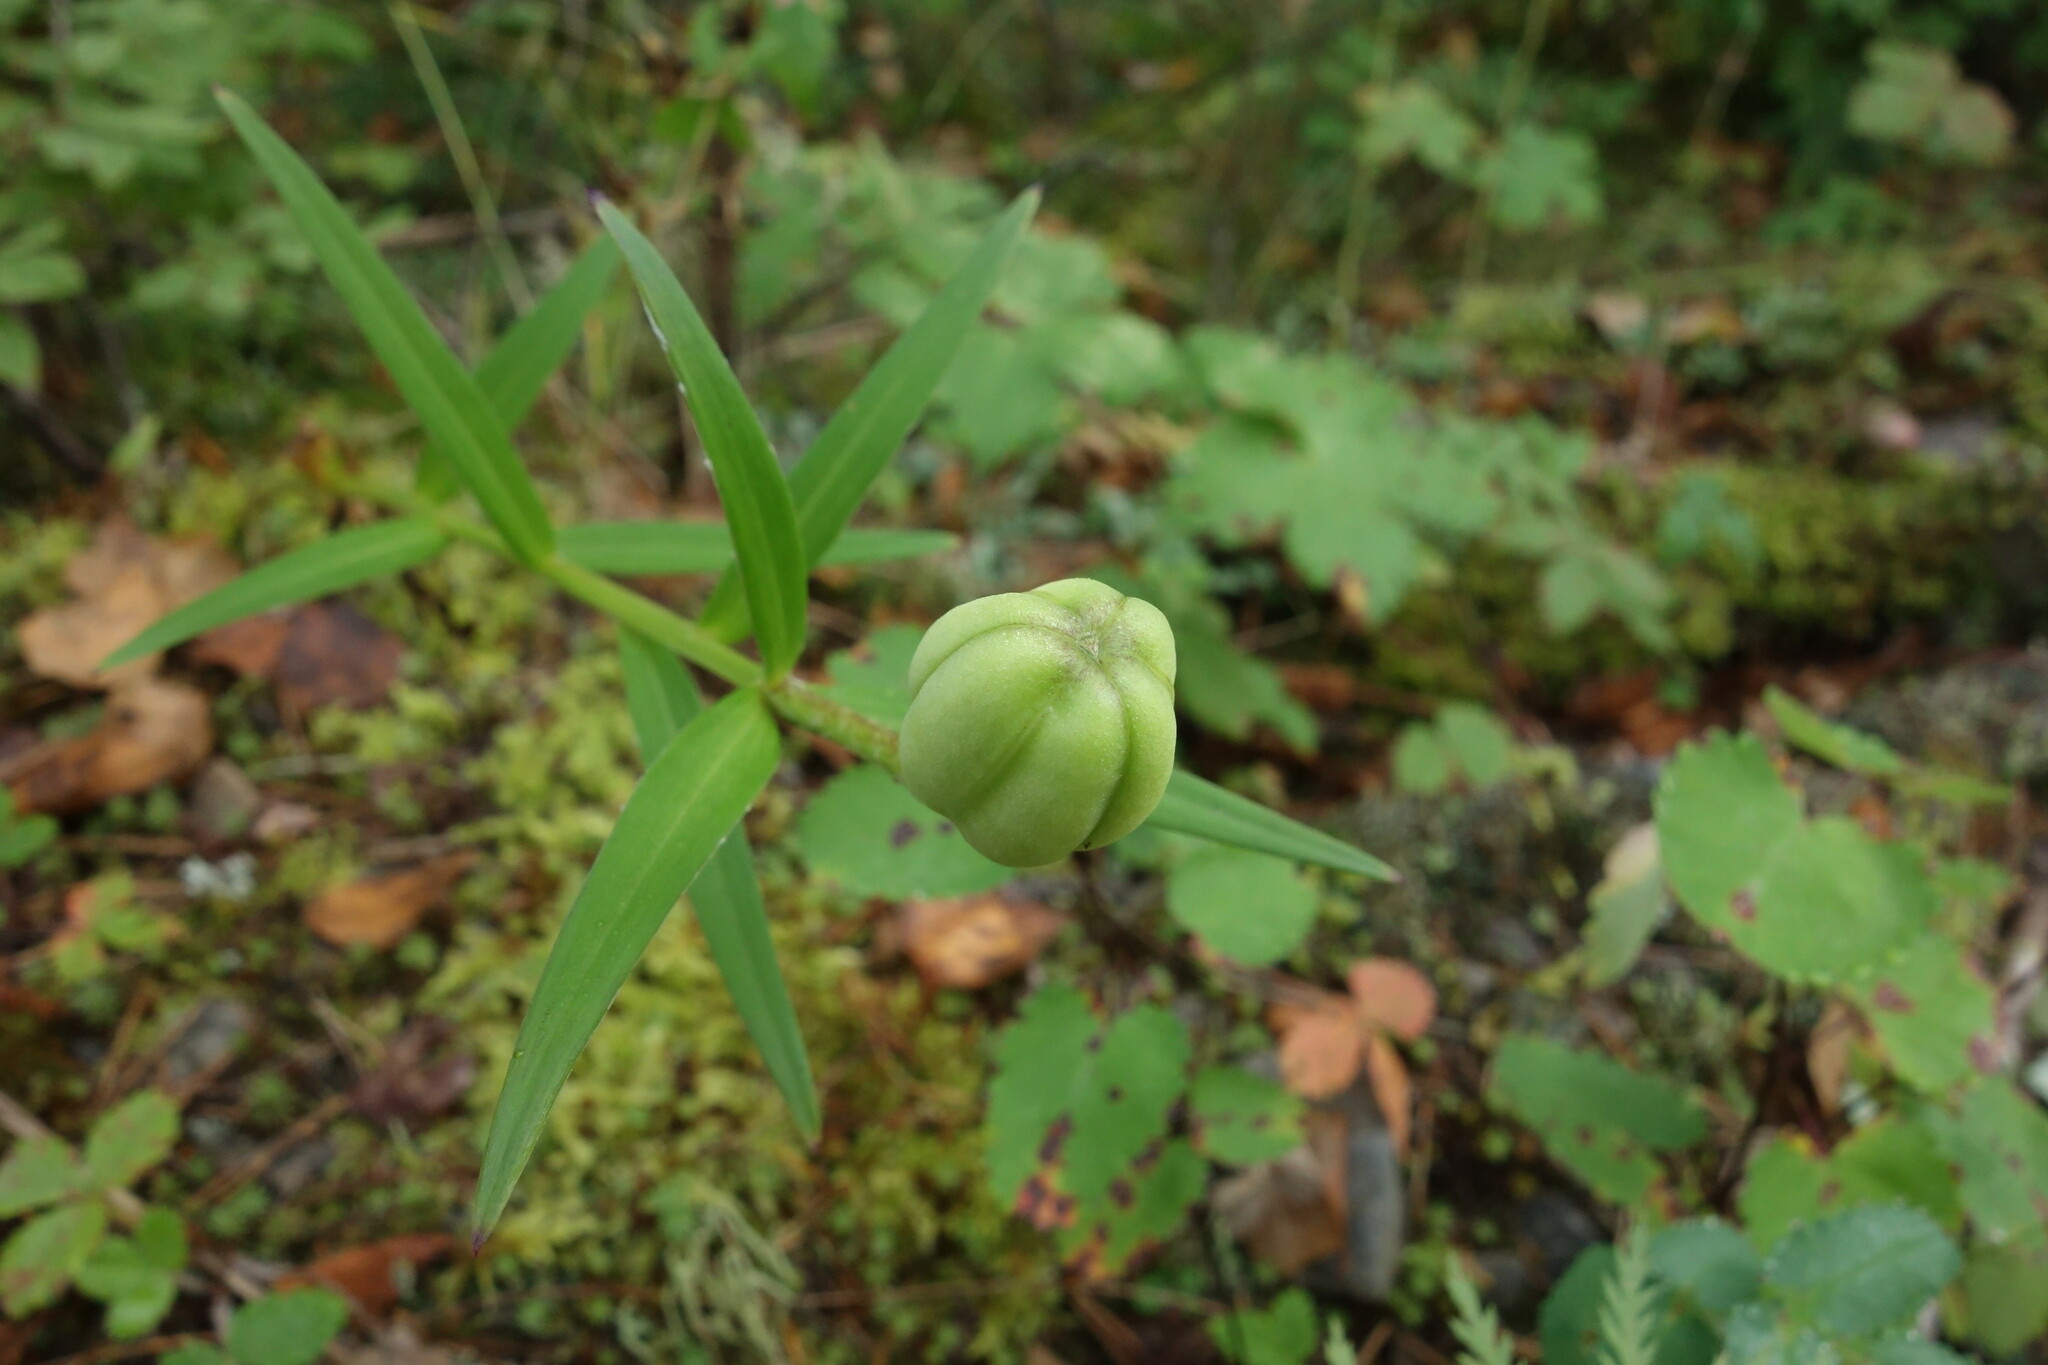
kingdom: Plantae
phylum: Tracheophyta
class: Liliopsida
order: Liliales
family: Liliaceae
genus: Lilium
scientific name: Lilium pensylvanicum
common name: Candlestick lily
